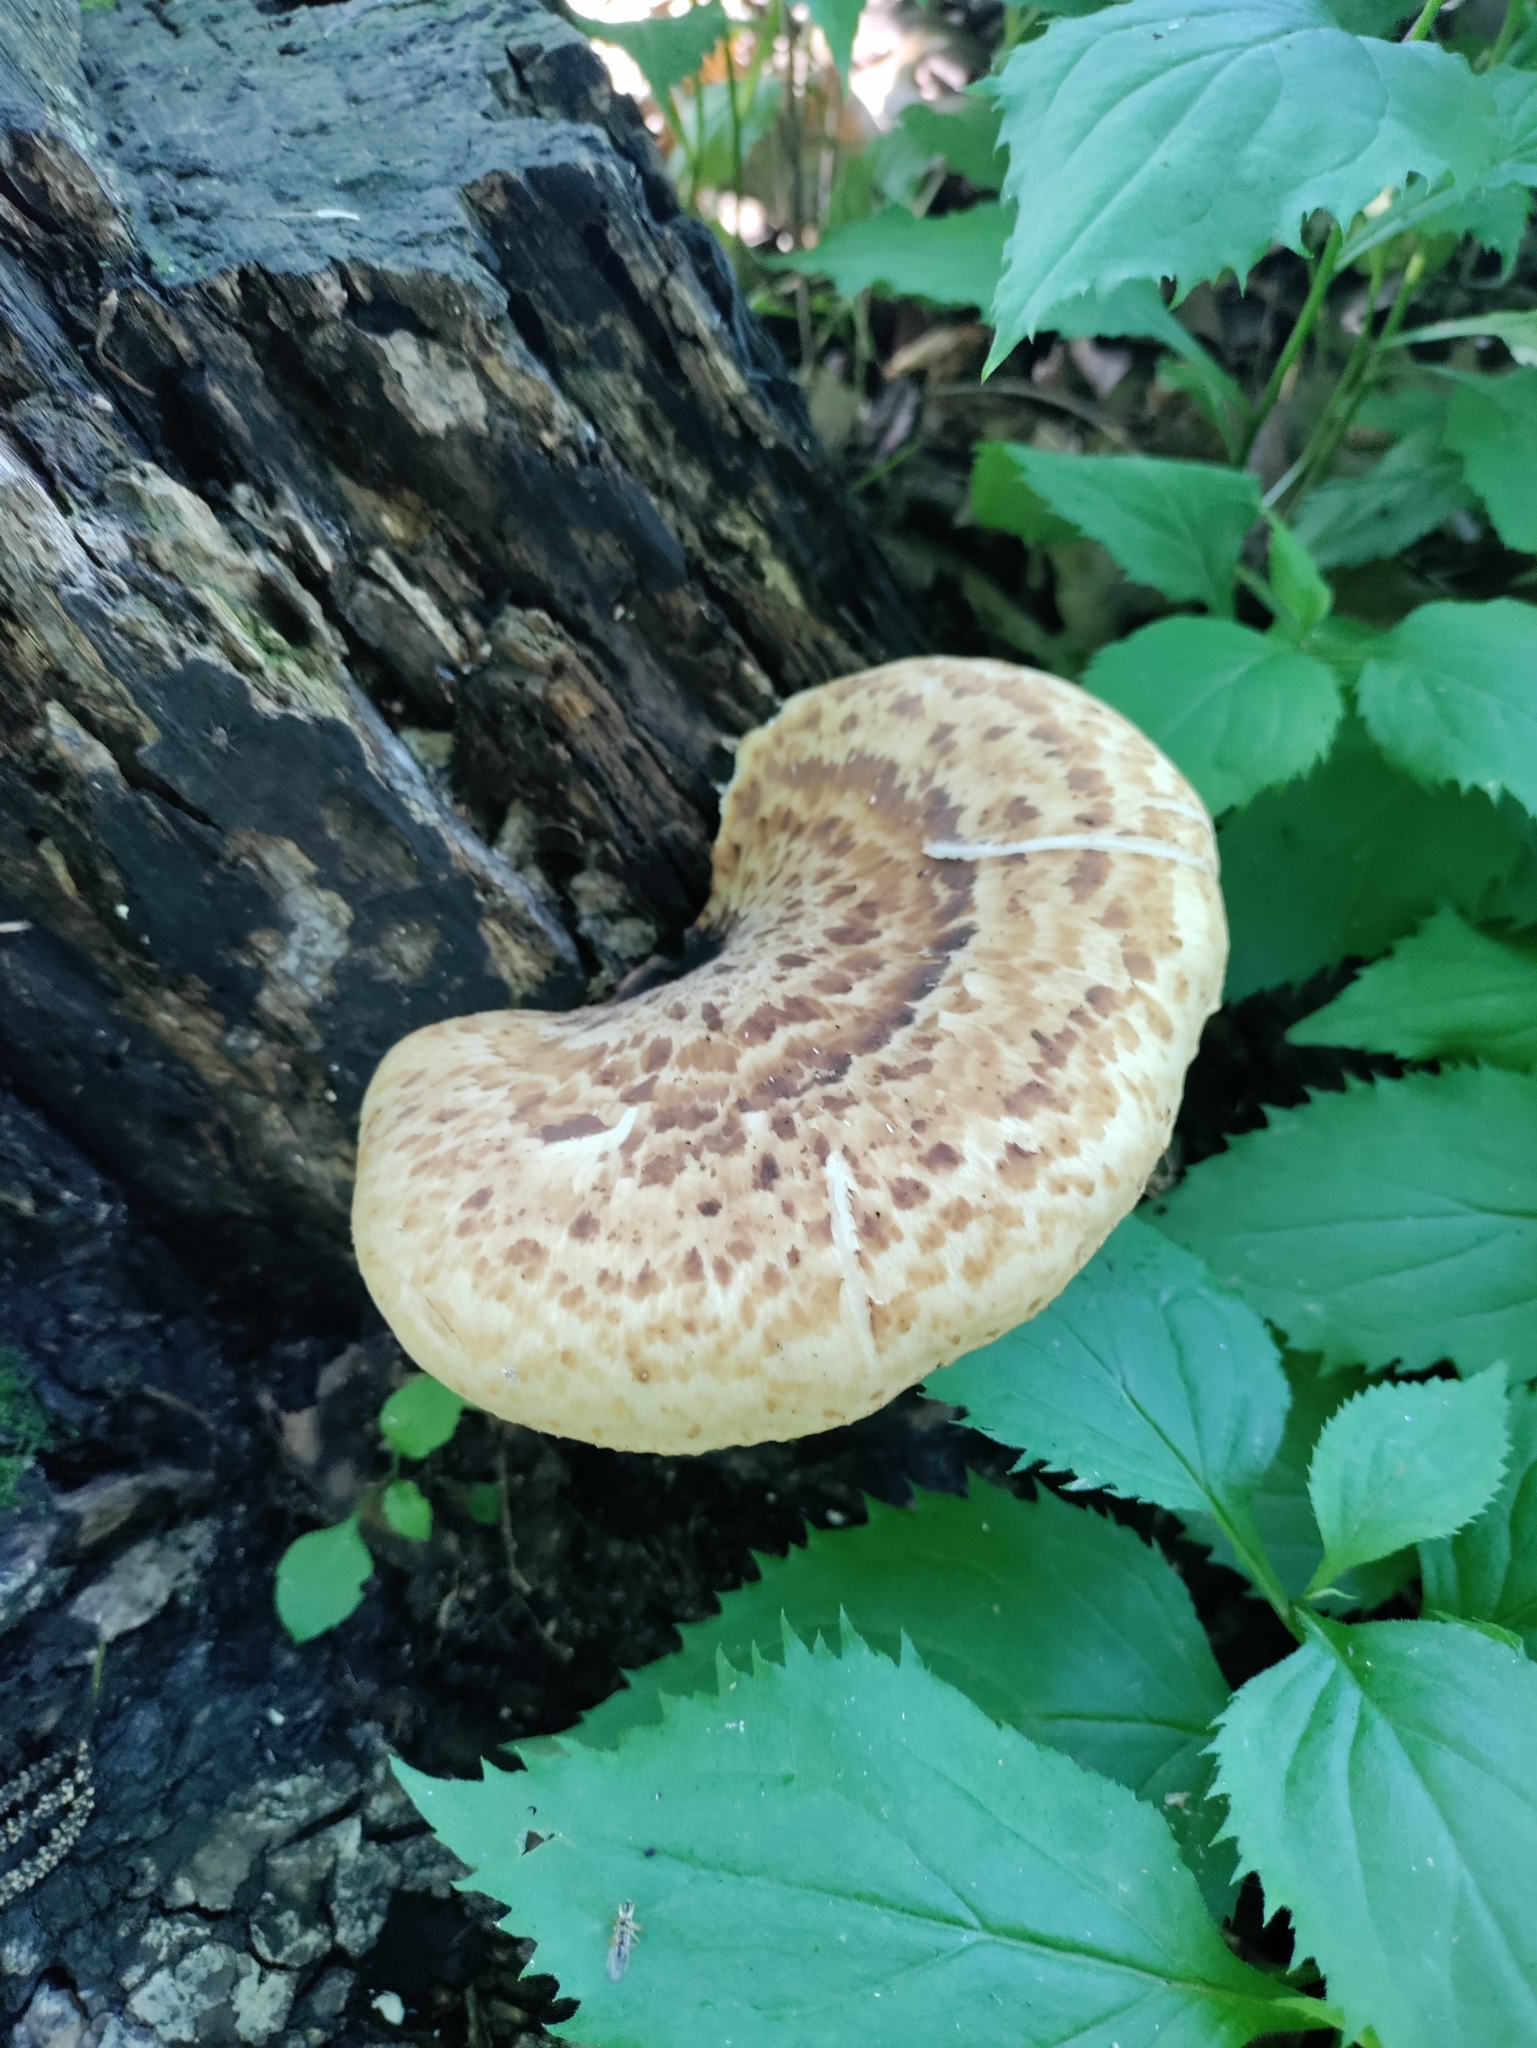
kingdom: Fungi
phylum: Basidiomycota
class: Agaricomycetes
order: Polyporales
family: Polyporaceae
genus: Cerioporus
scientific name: Cerioporus squamosus
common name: Dryad's saddle
